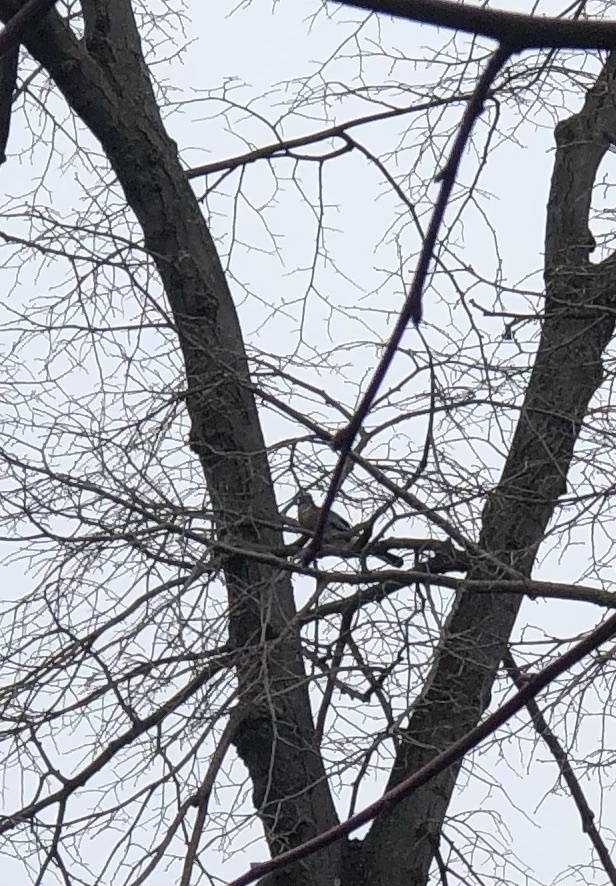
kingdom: Animalia
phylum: Chordata
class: Aves
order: Passeriformes
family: Corvidae
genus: Garrulus
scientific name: Garrulus glandarius
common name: Eurasian jay
